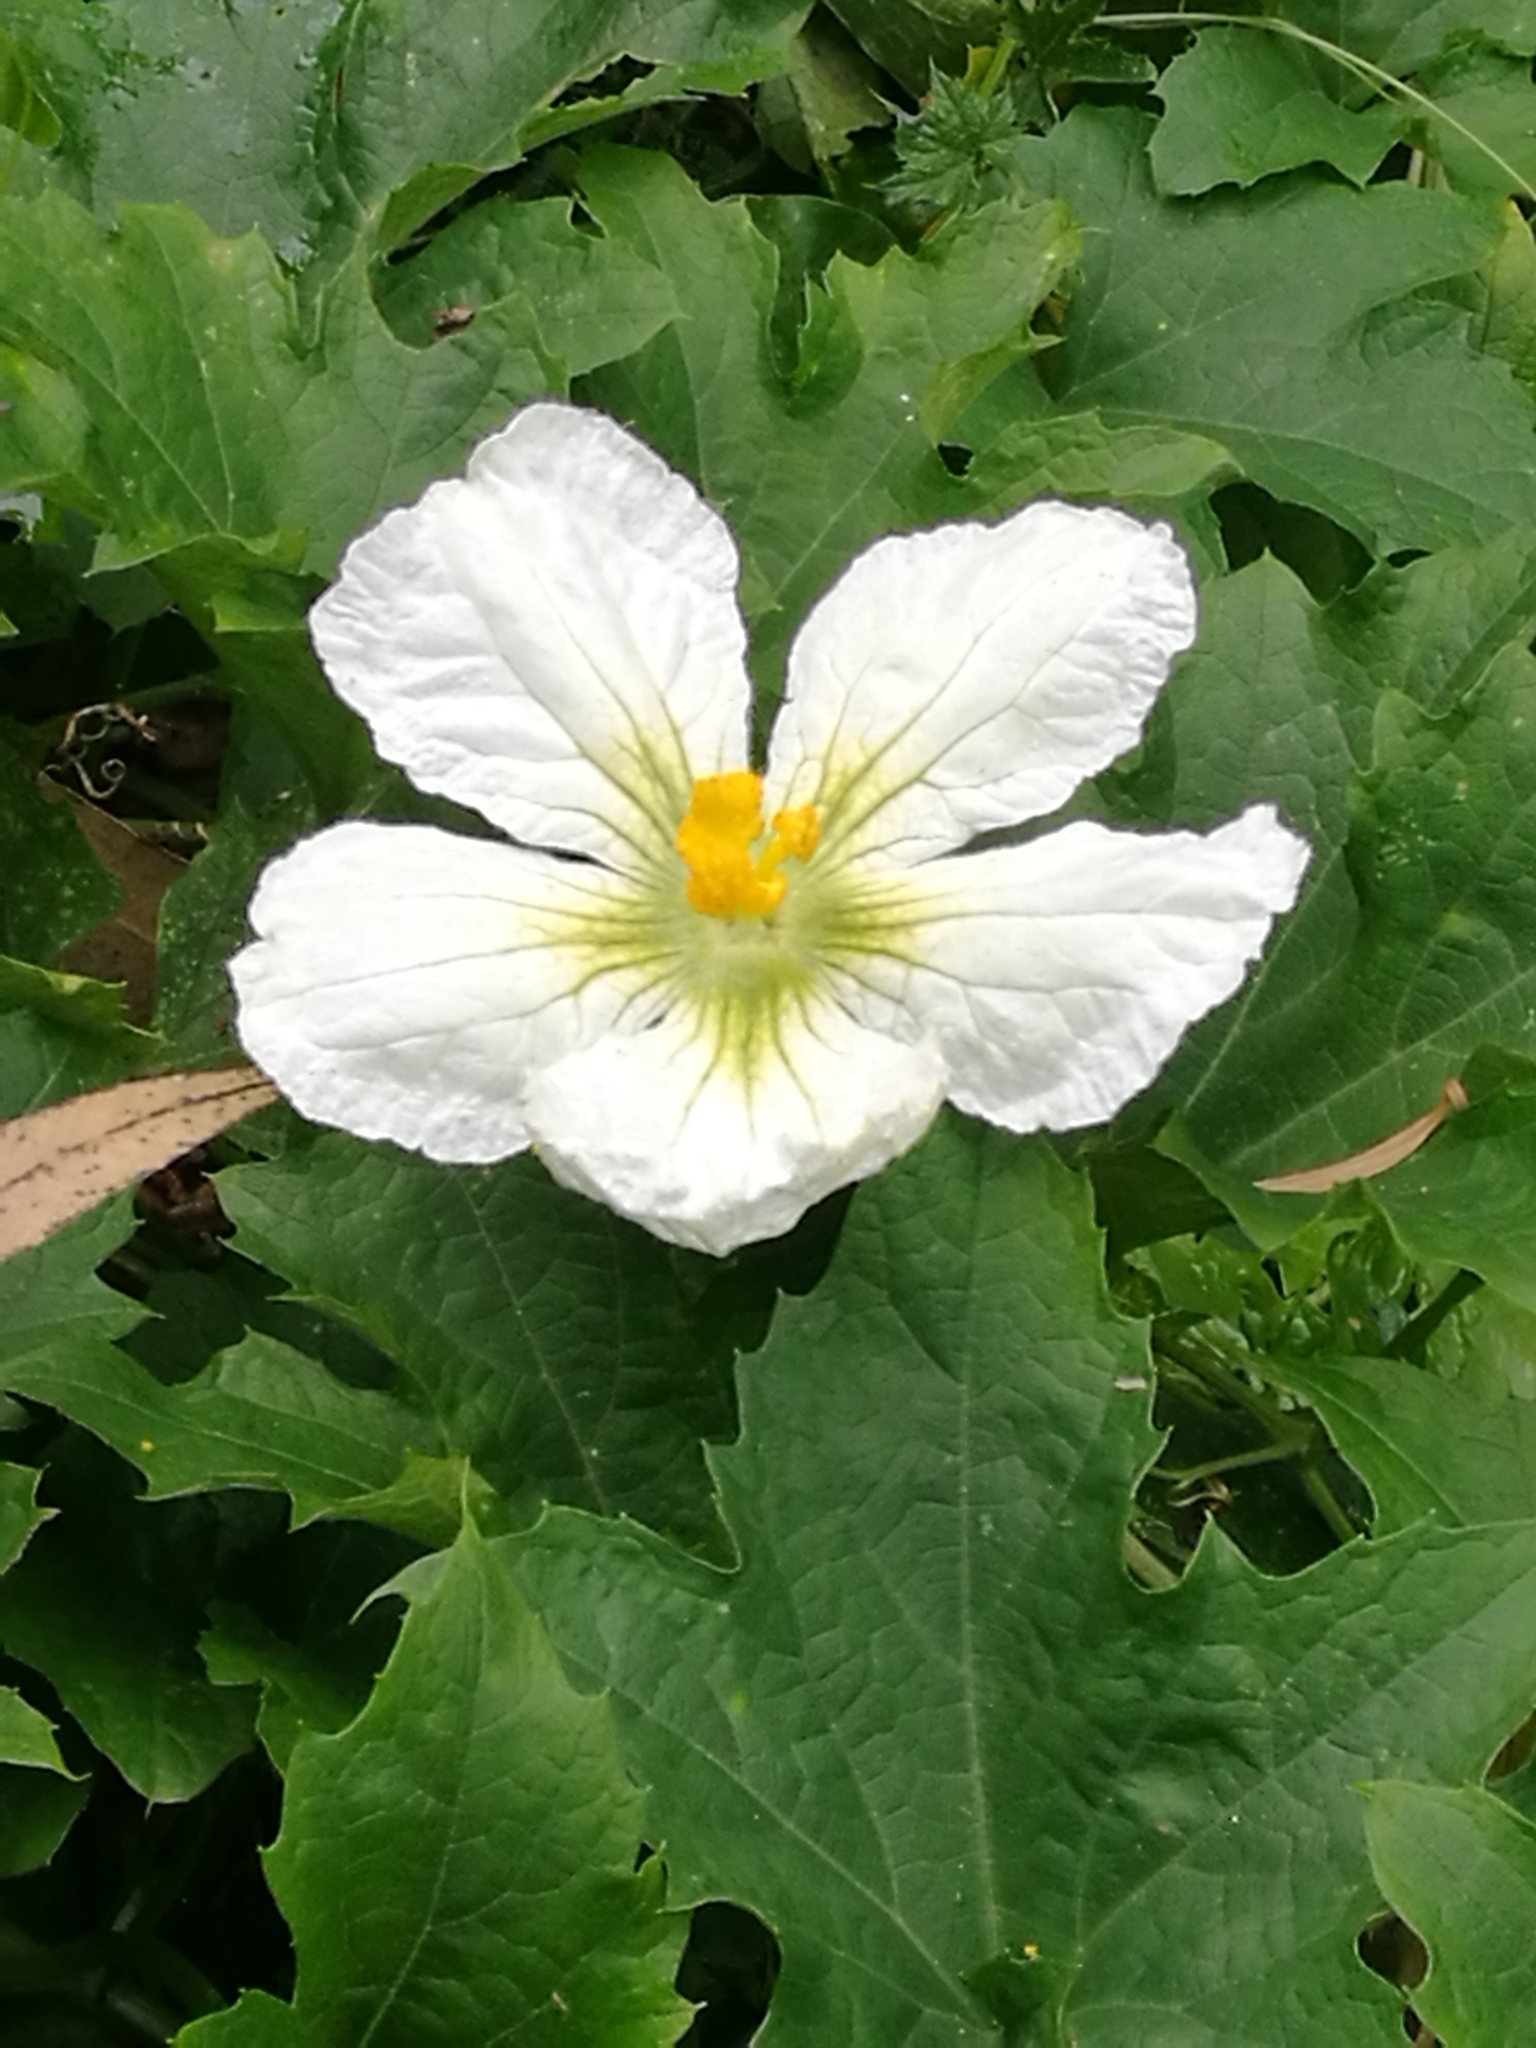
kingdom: Plantae
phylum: Tracheophyta
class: Magnoliopsida
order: Cucurbitales
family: Cucurbitaceae
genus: Lagenaria
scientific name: Lagenaria sphaerica
